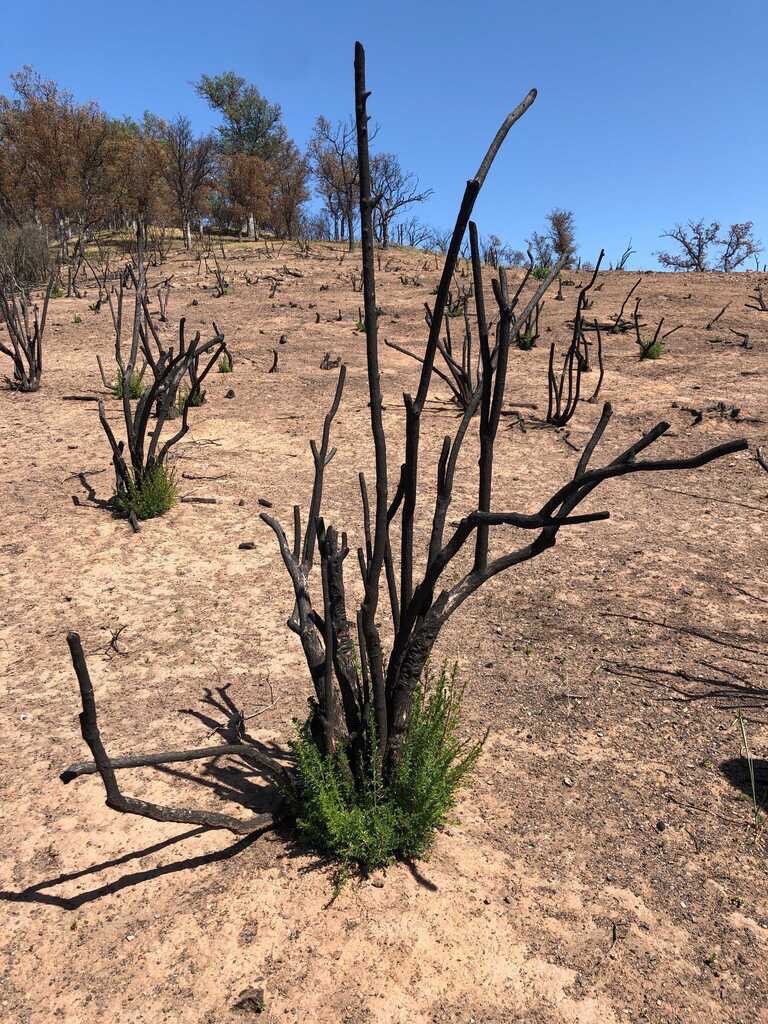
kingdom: Plantae
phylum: Tracheophyta
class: Magnoliopsida
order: Rosales
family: Rosaceae
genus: Adenostoma
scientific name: Adenostoma fasciculatum
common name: Chamise
